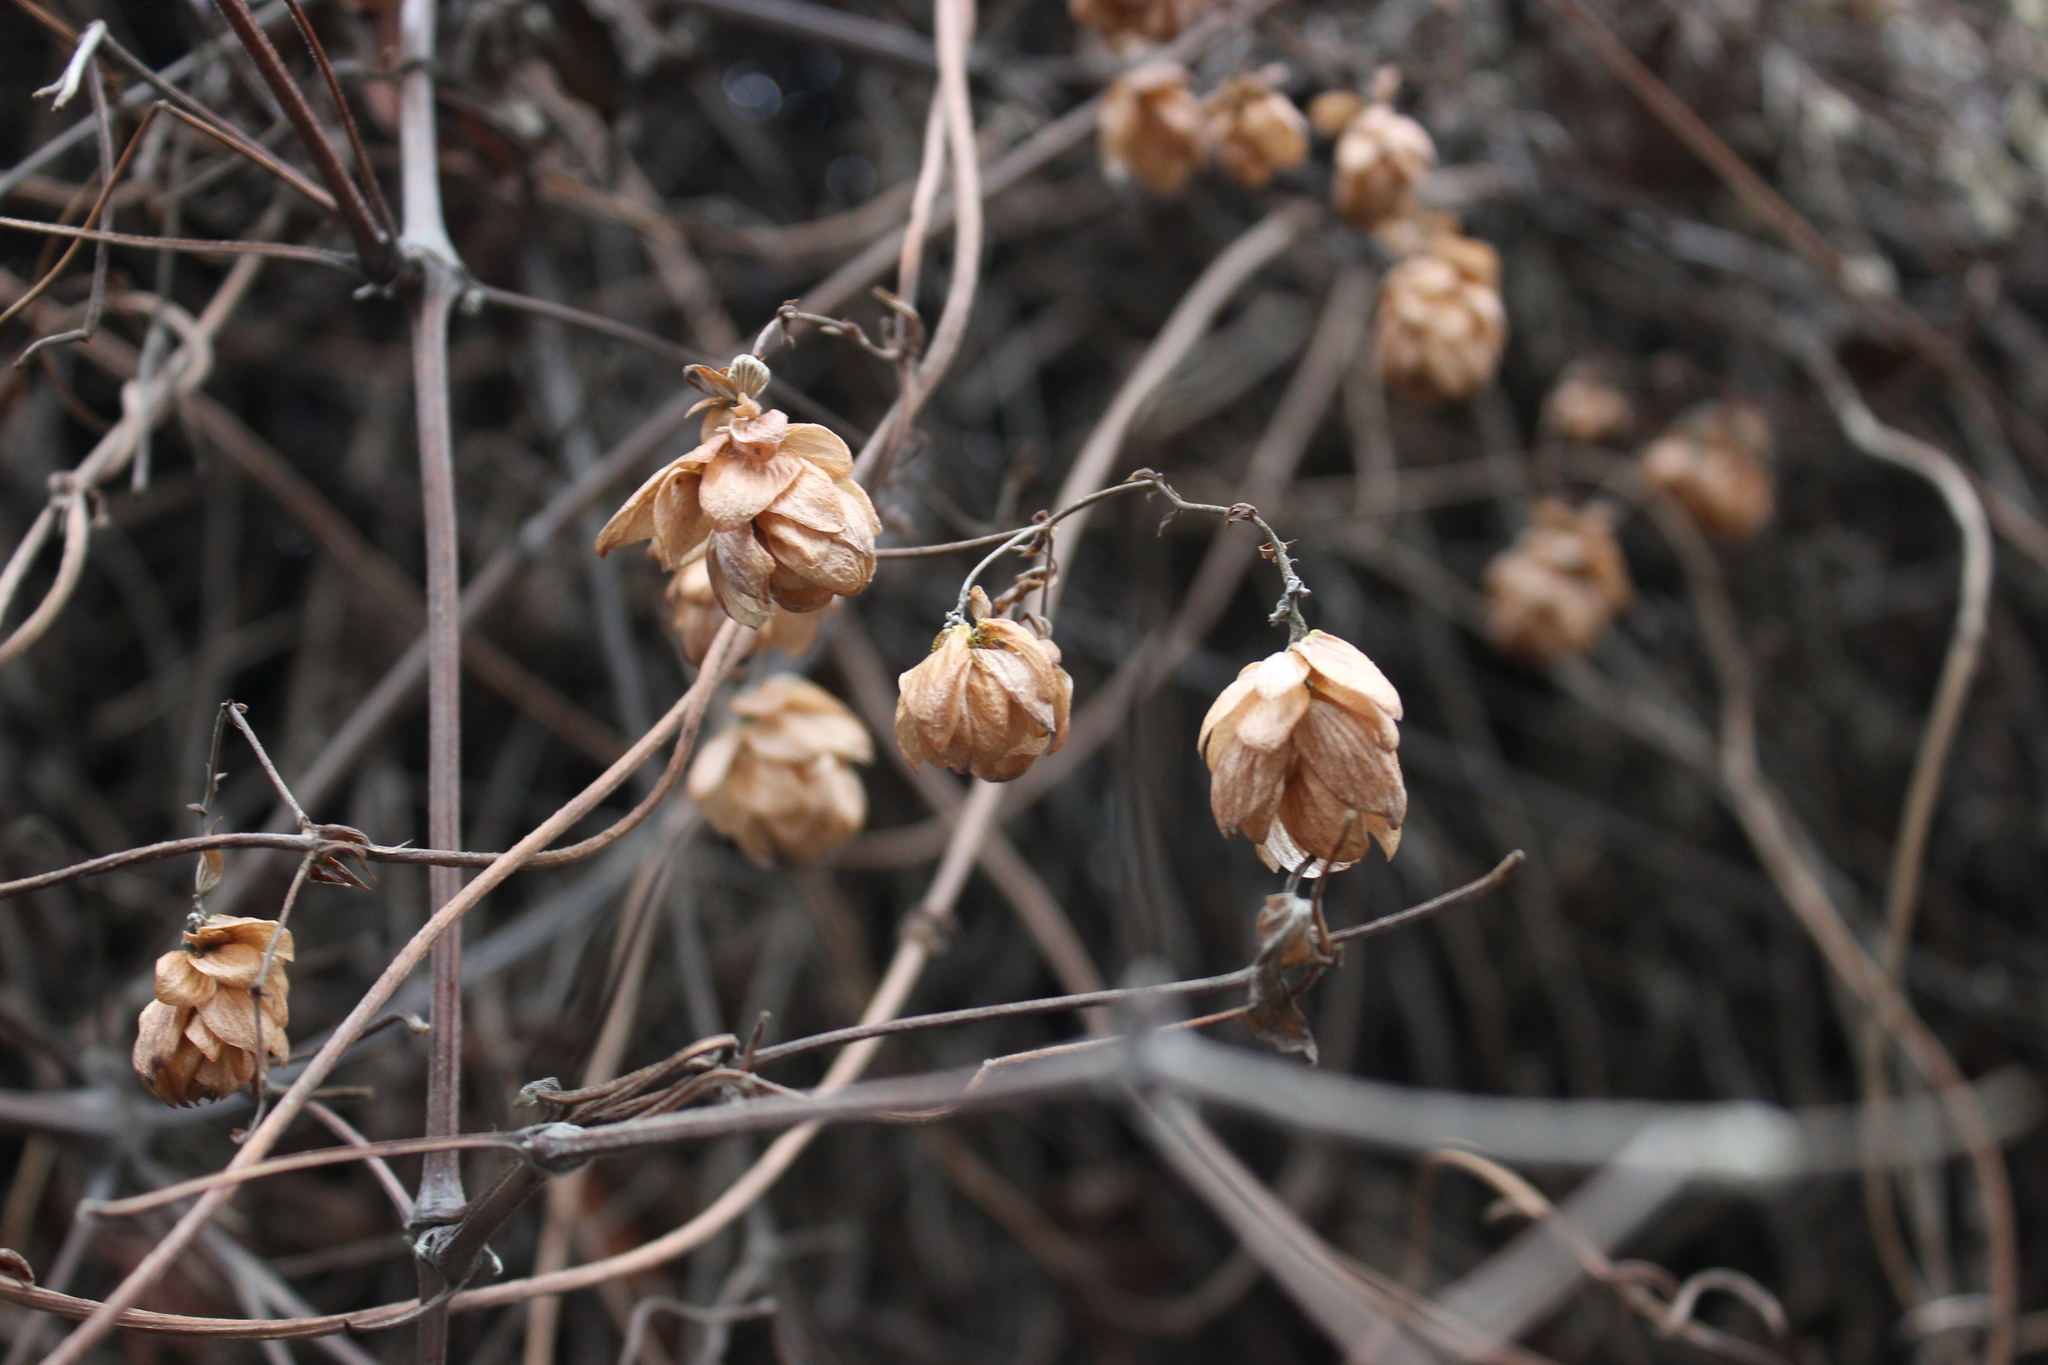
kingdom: Plantae
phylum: Tracheophyta
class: Magnoliopsida
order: Rosales
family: Cannabaceae
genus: Humulus
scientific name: Humulus lupulus
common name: Hop
